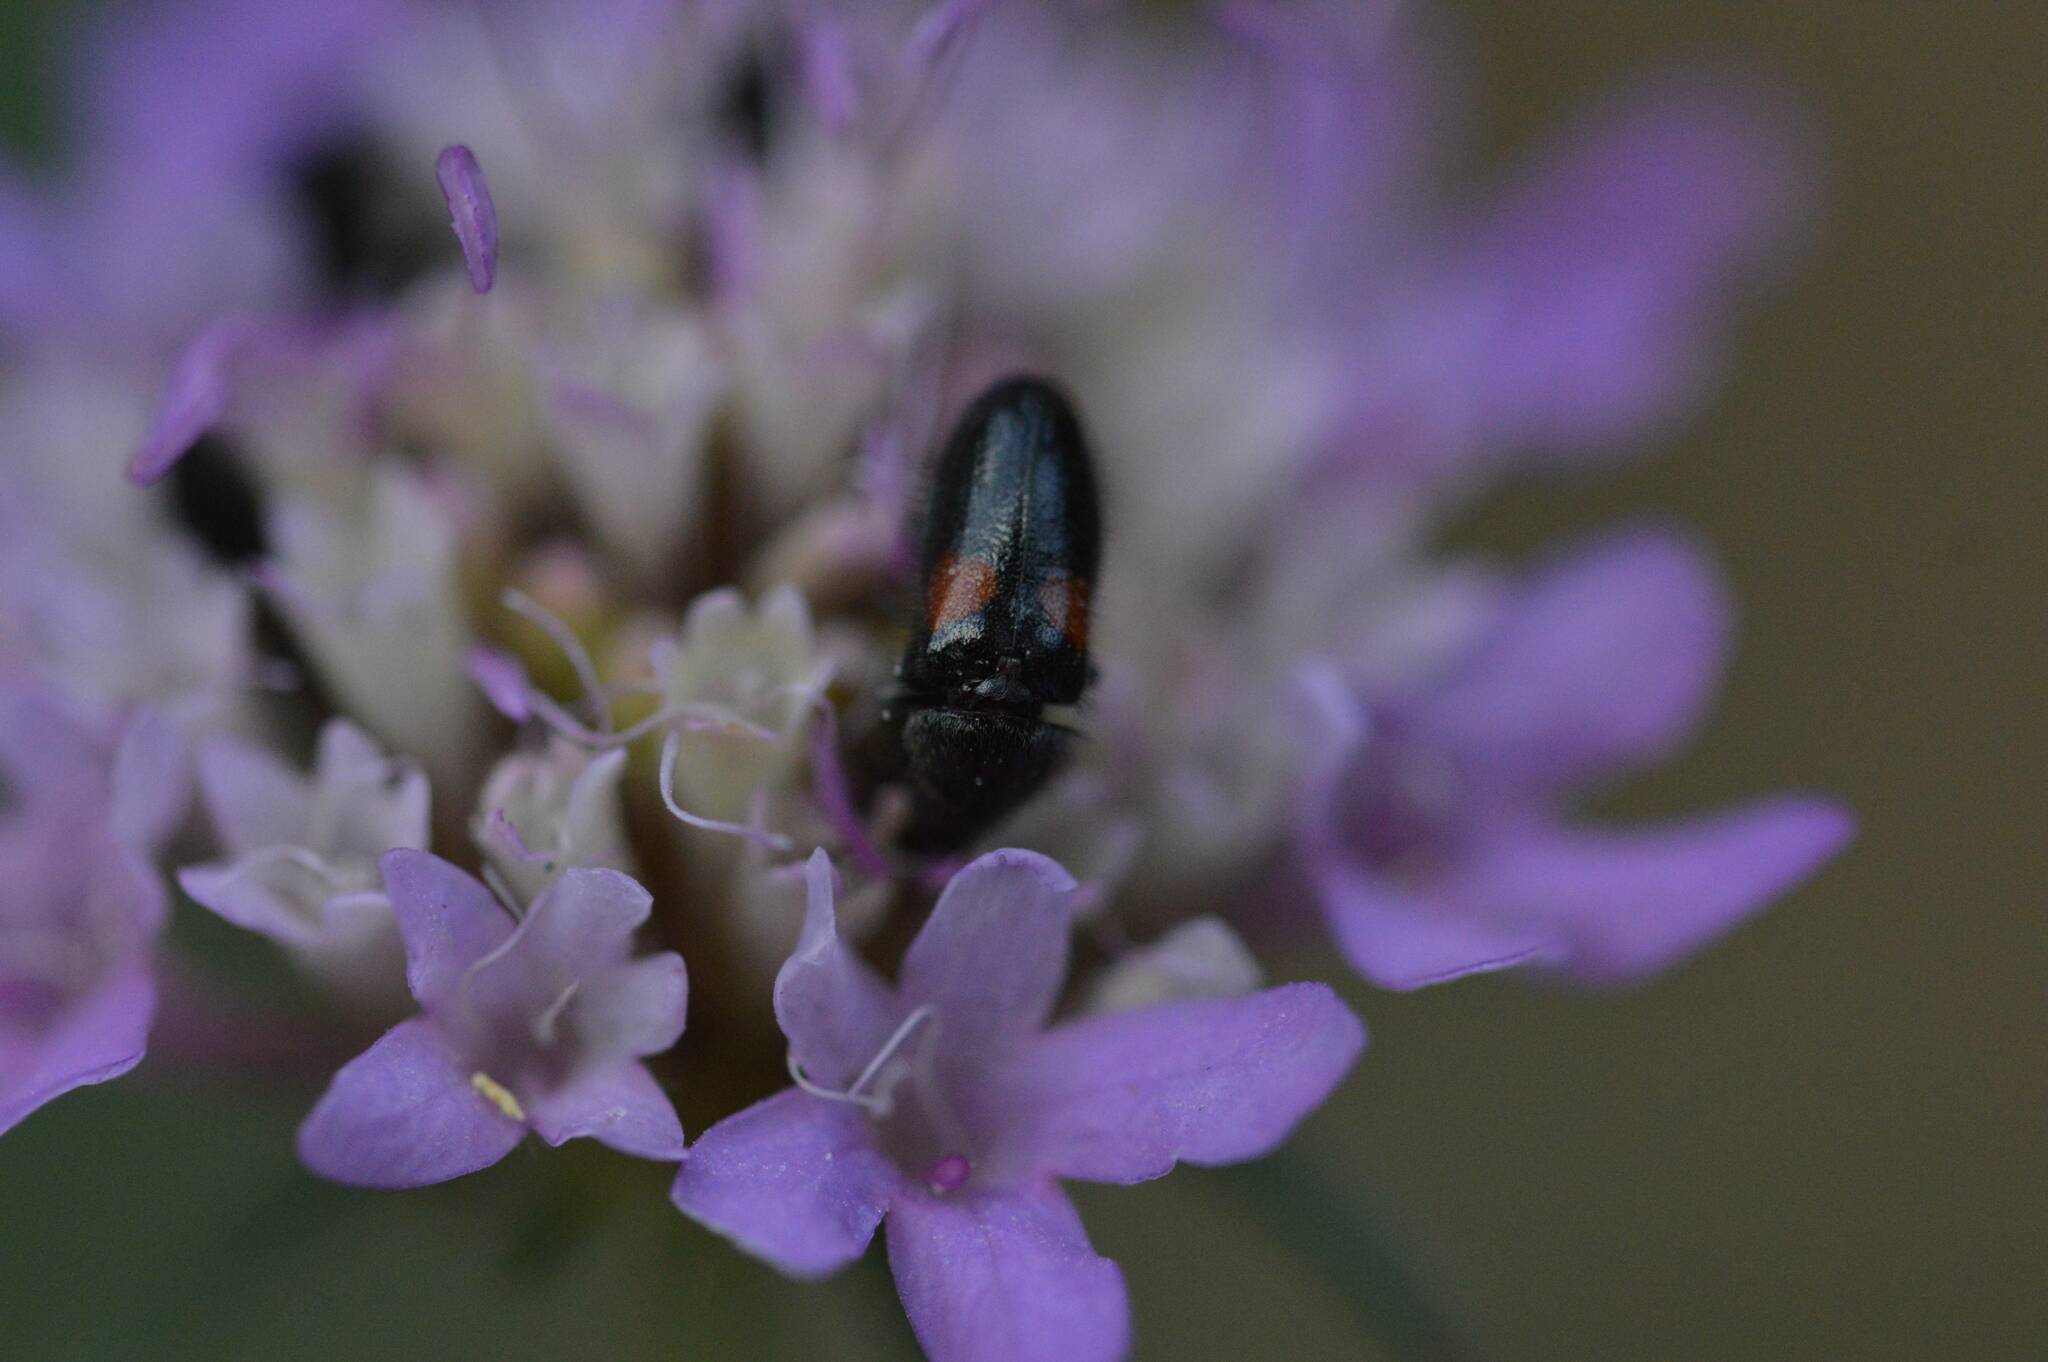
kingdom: Animalia
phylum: Arthropoda
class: Insecta
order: Coleoptera
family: Melyridae
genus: Divales
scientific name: Divales bipustulatus
